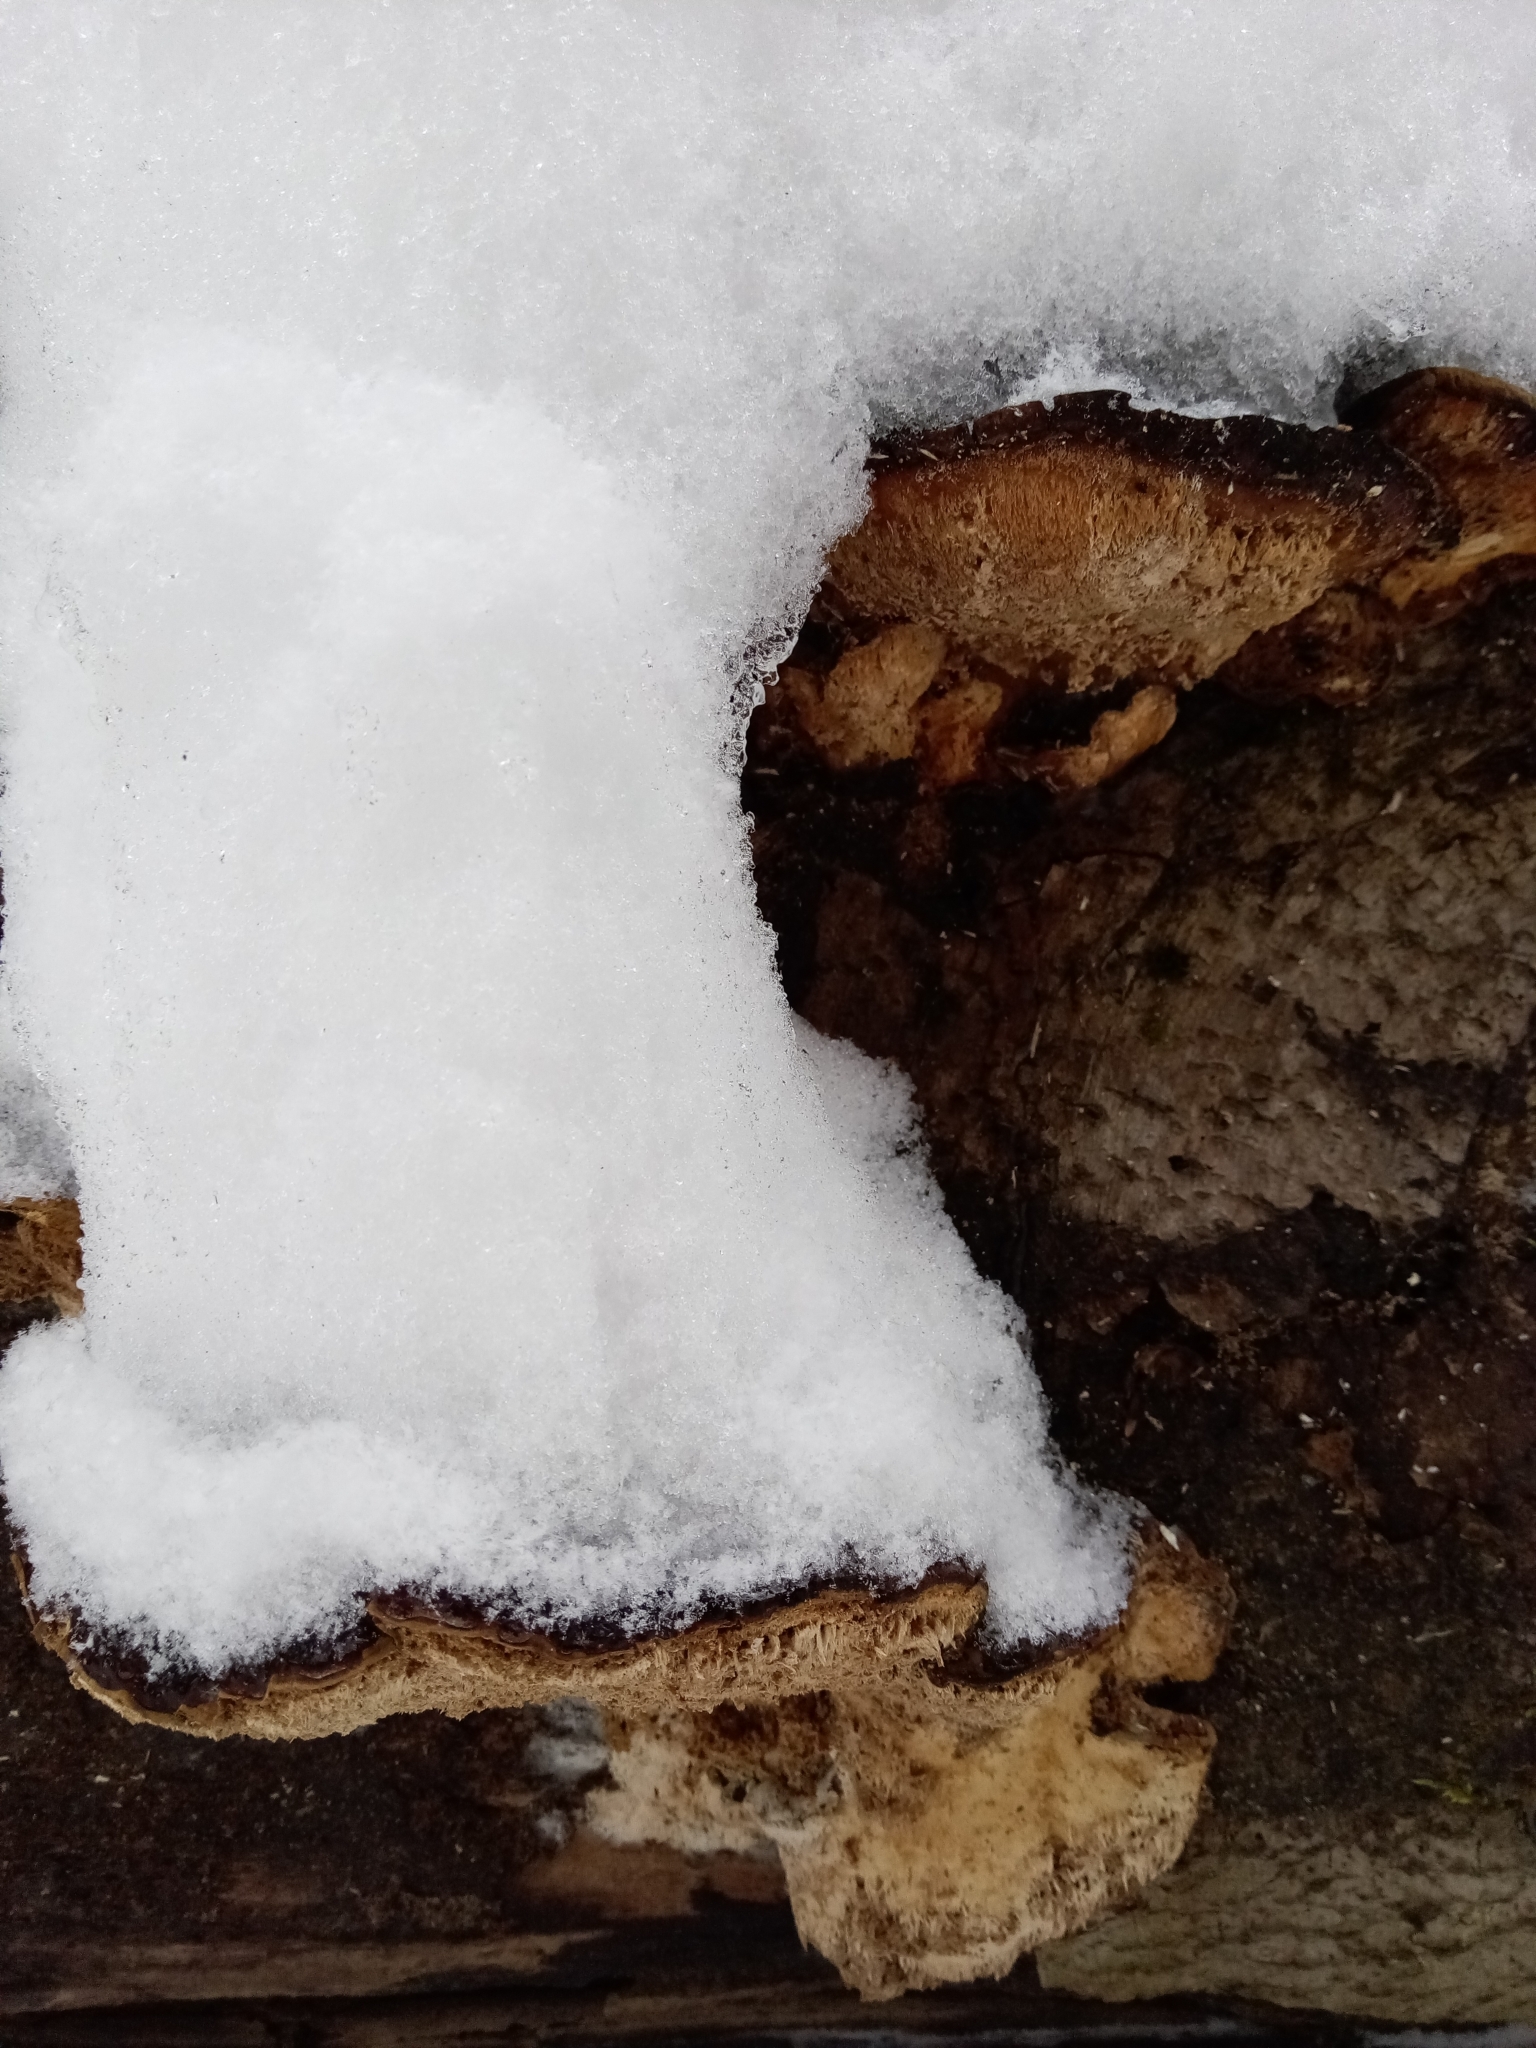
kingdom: Fungi
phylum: Basidiomycota
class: Agaricomycetes
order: Polyporales
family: Ischnodermataceae
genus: Ischnoderma
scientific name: Ischnoderma resinosum
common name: Resinous polypore
